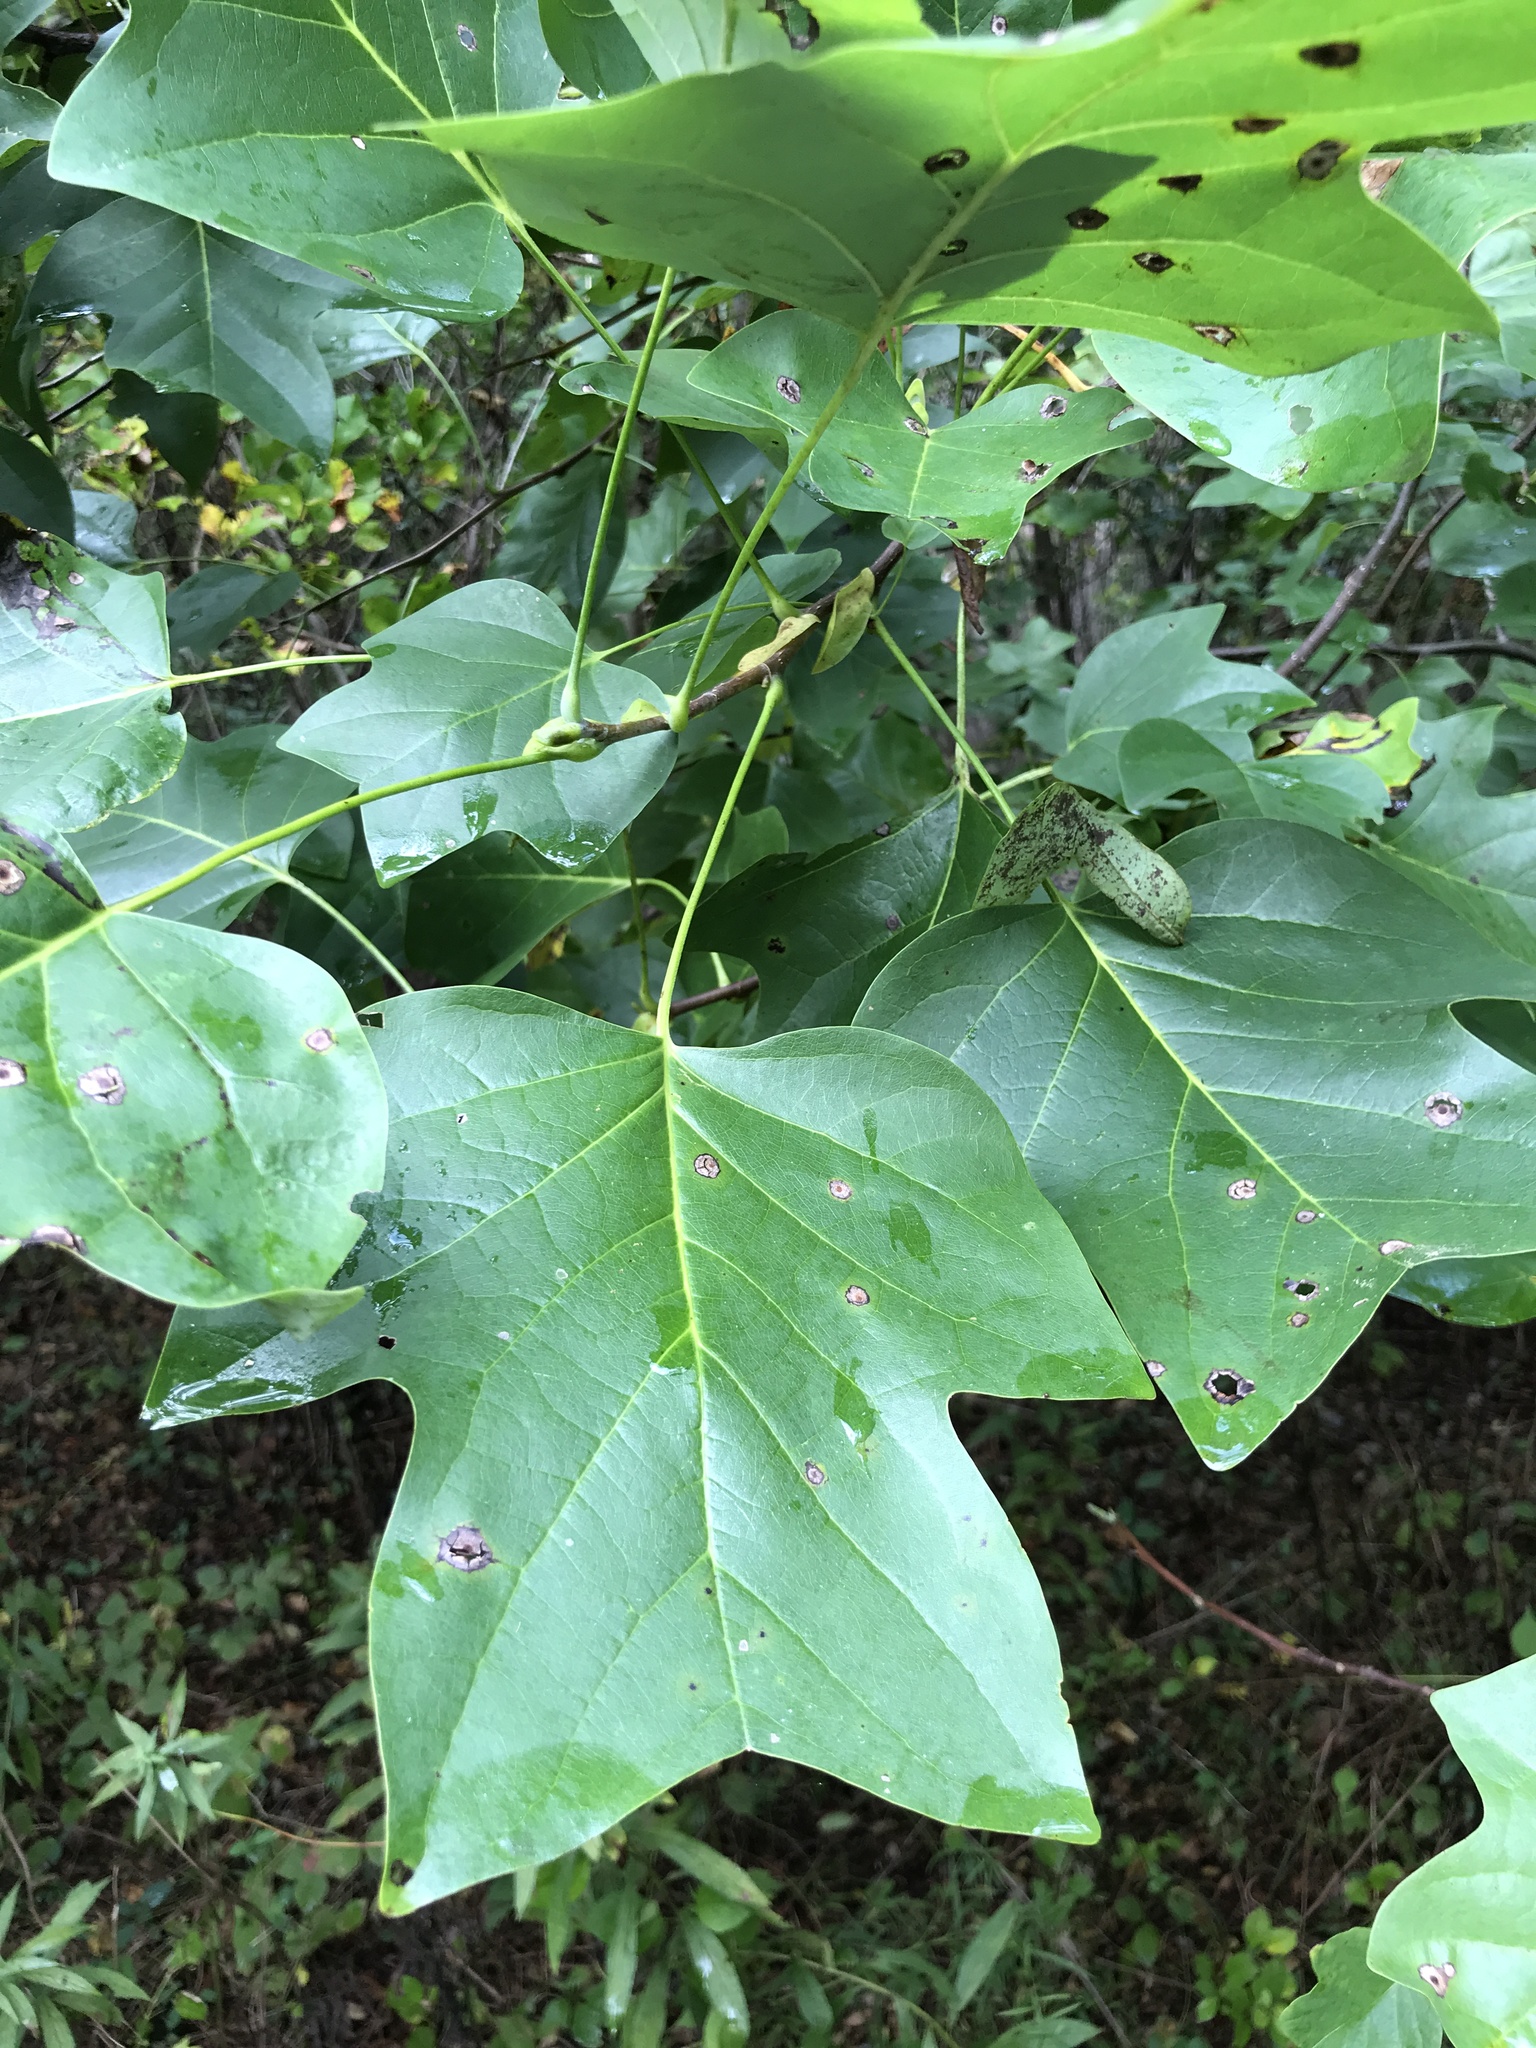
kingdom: Plantae
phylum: Tracheophyta
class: Magnoliopsida
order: Magnoliales
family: Magnoliaceae
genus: Liriodendron
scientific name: Liriodendron tulipifera
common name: Tulip tree
